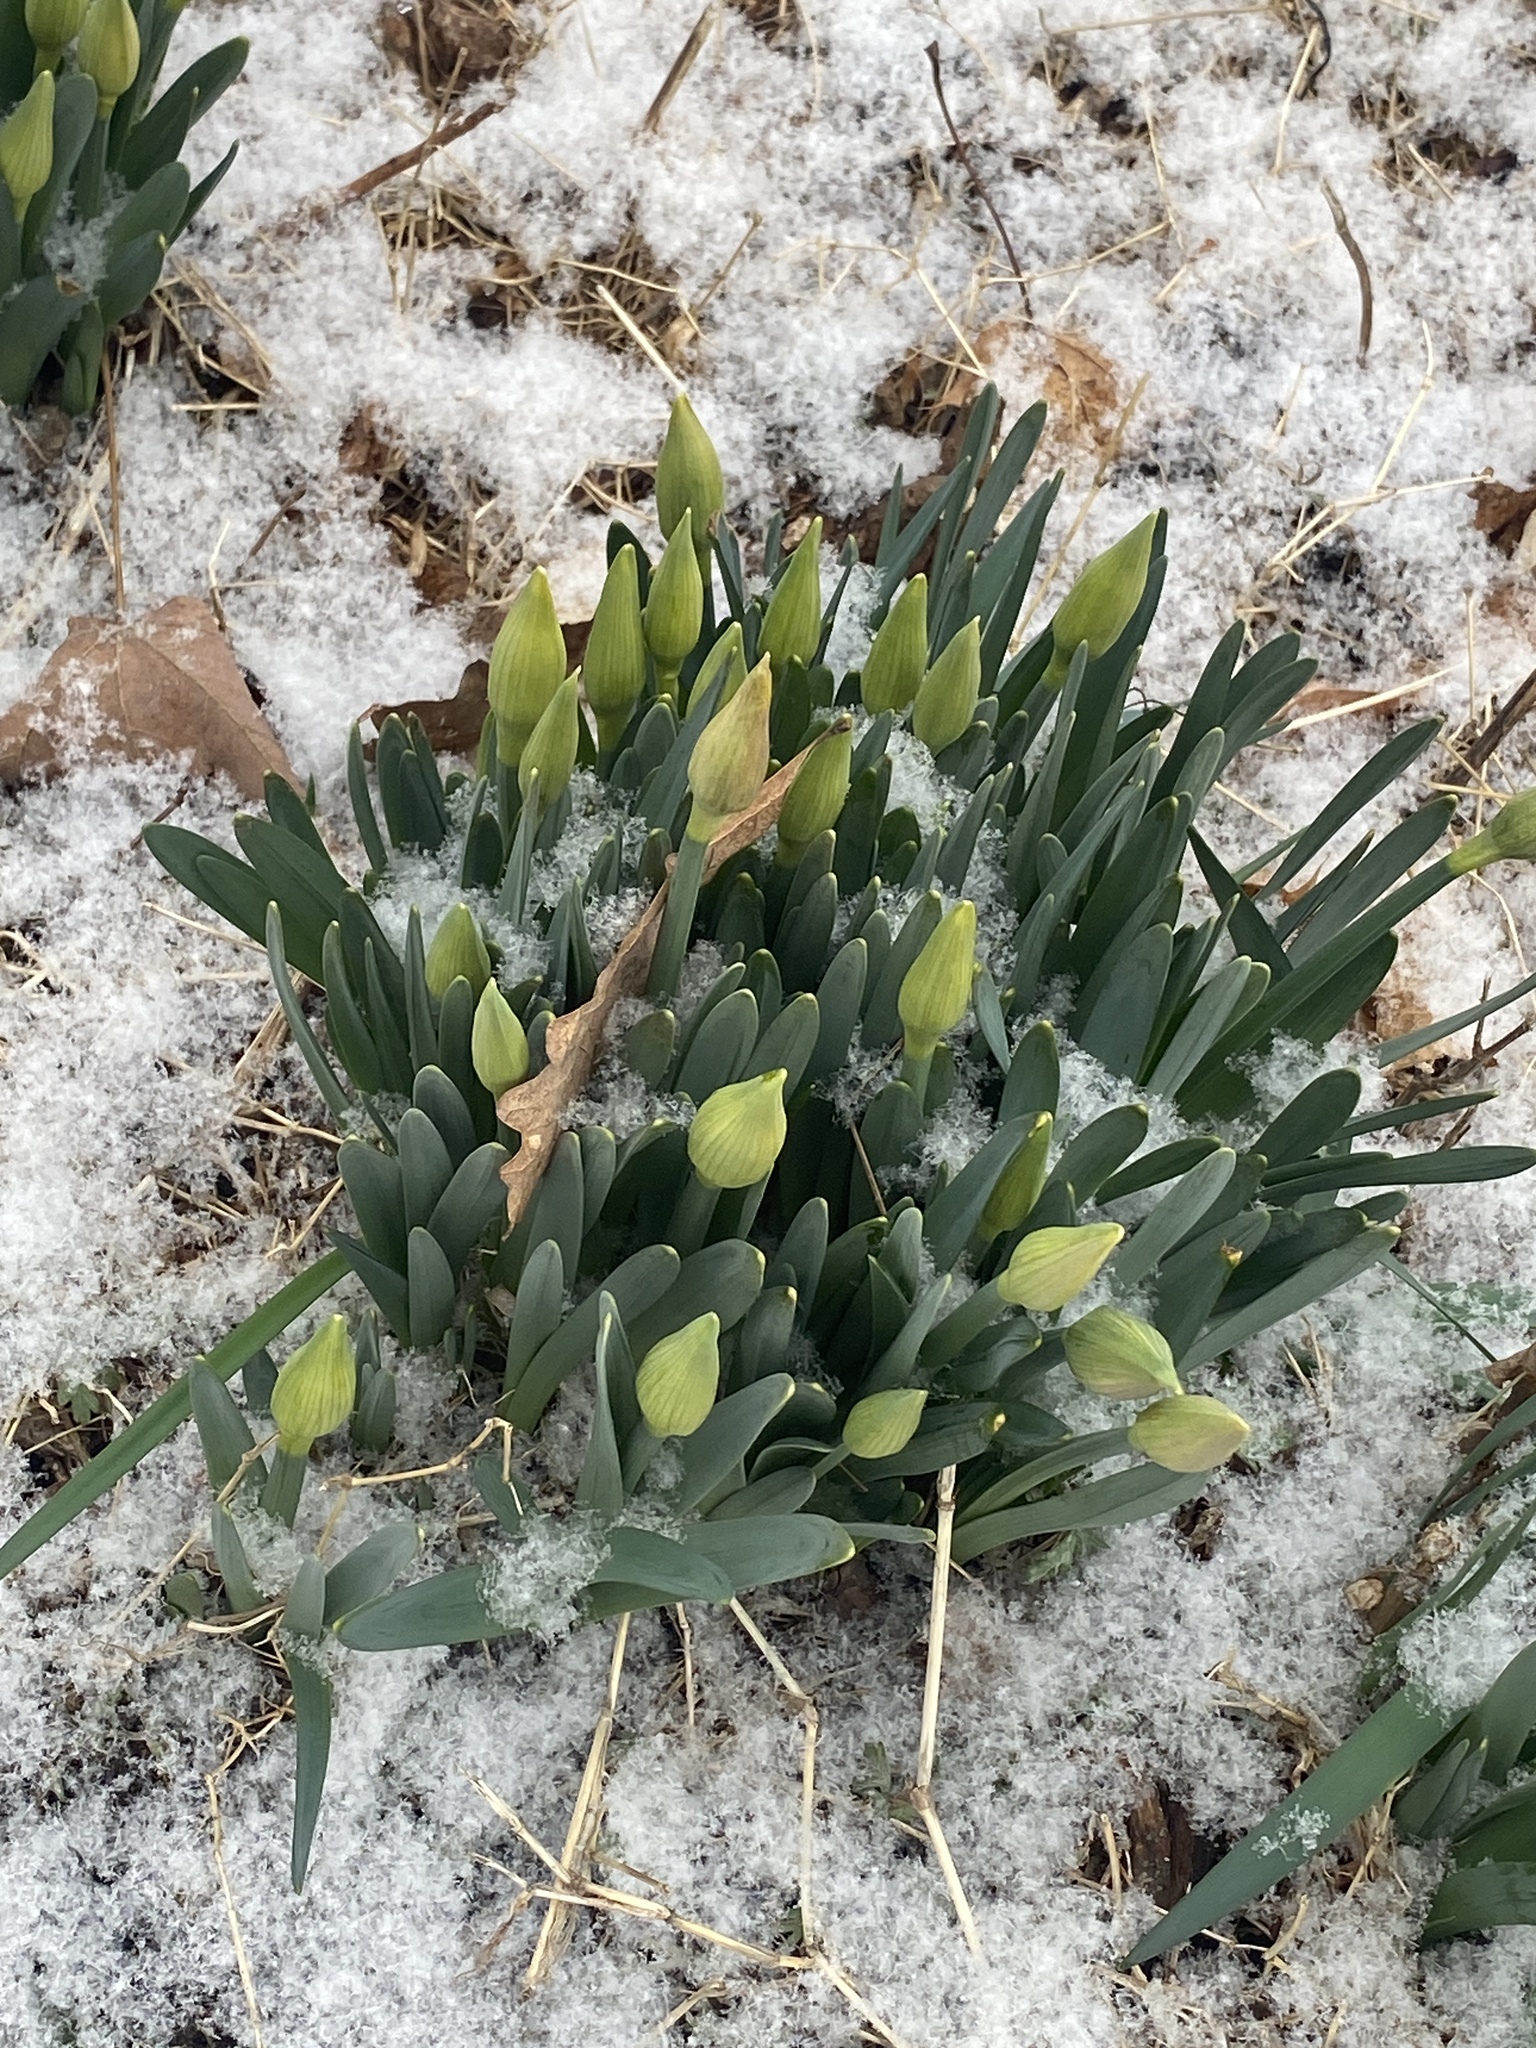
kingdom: Plantae
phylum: Tracheophyta
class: Liliopsida
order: Asparagales
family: Amaryllidaceae
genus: Narcissus
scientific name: Narcissus
